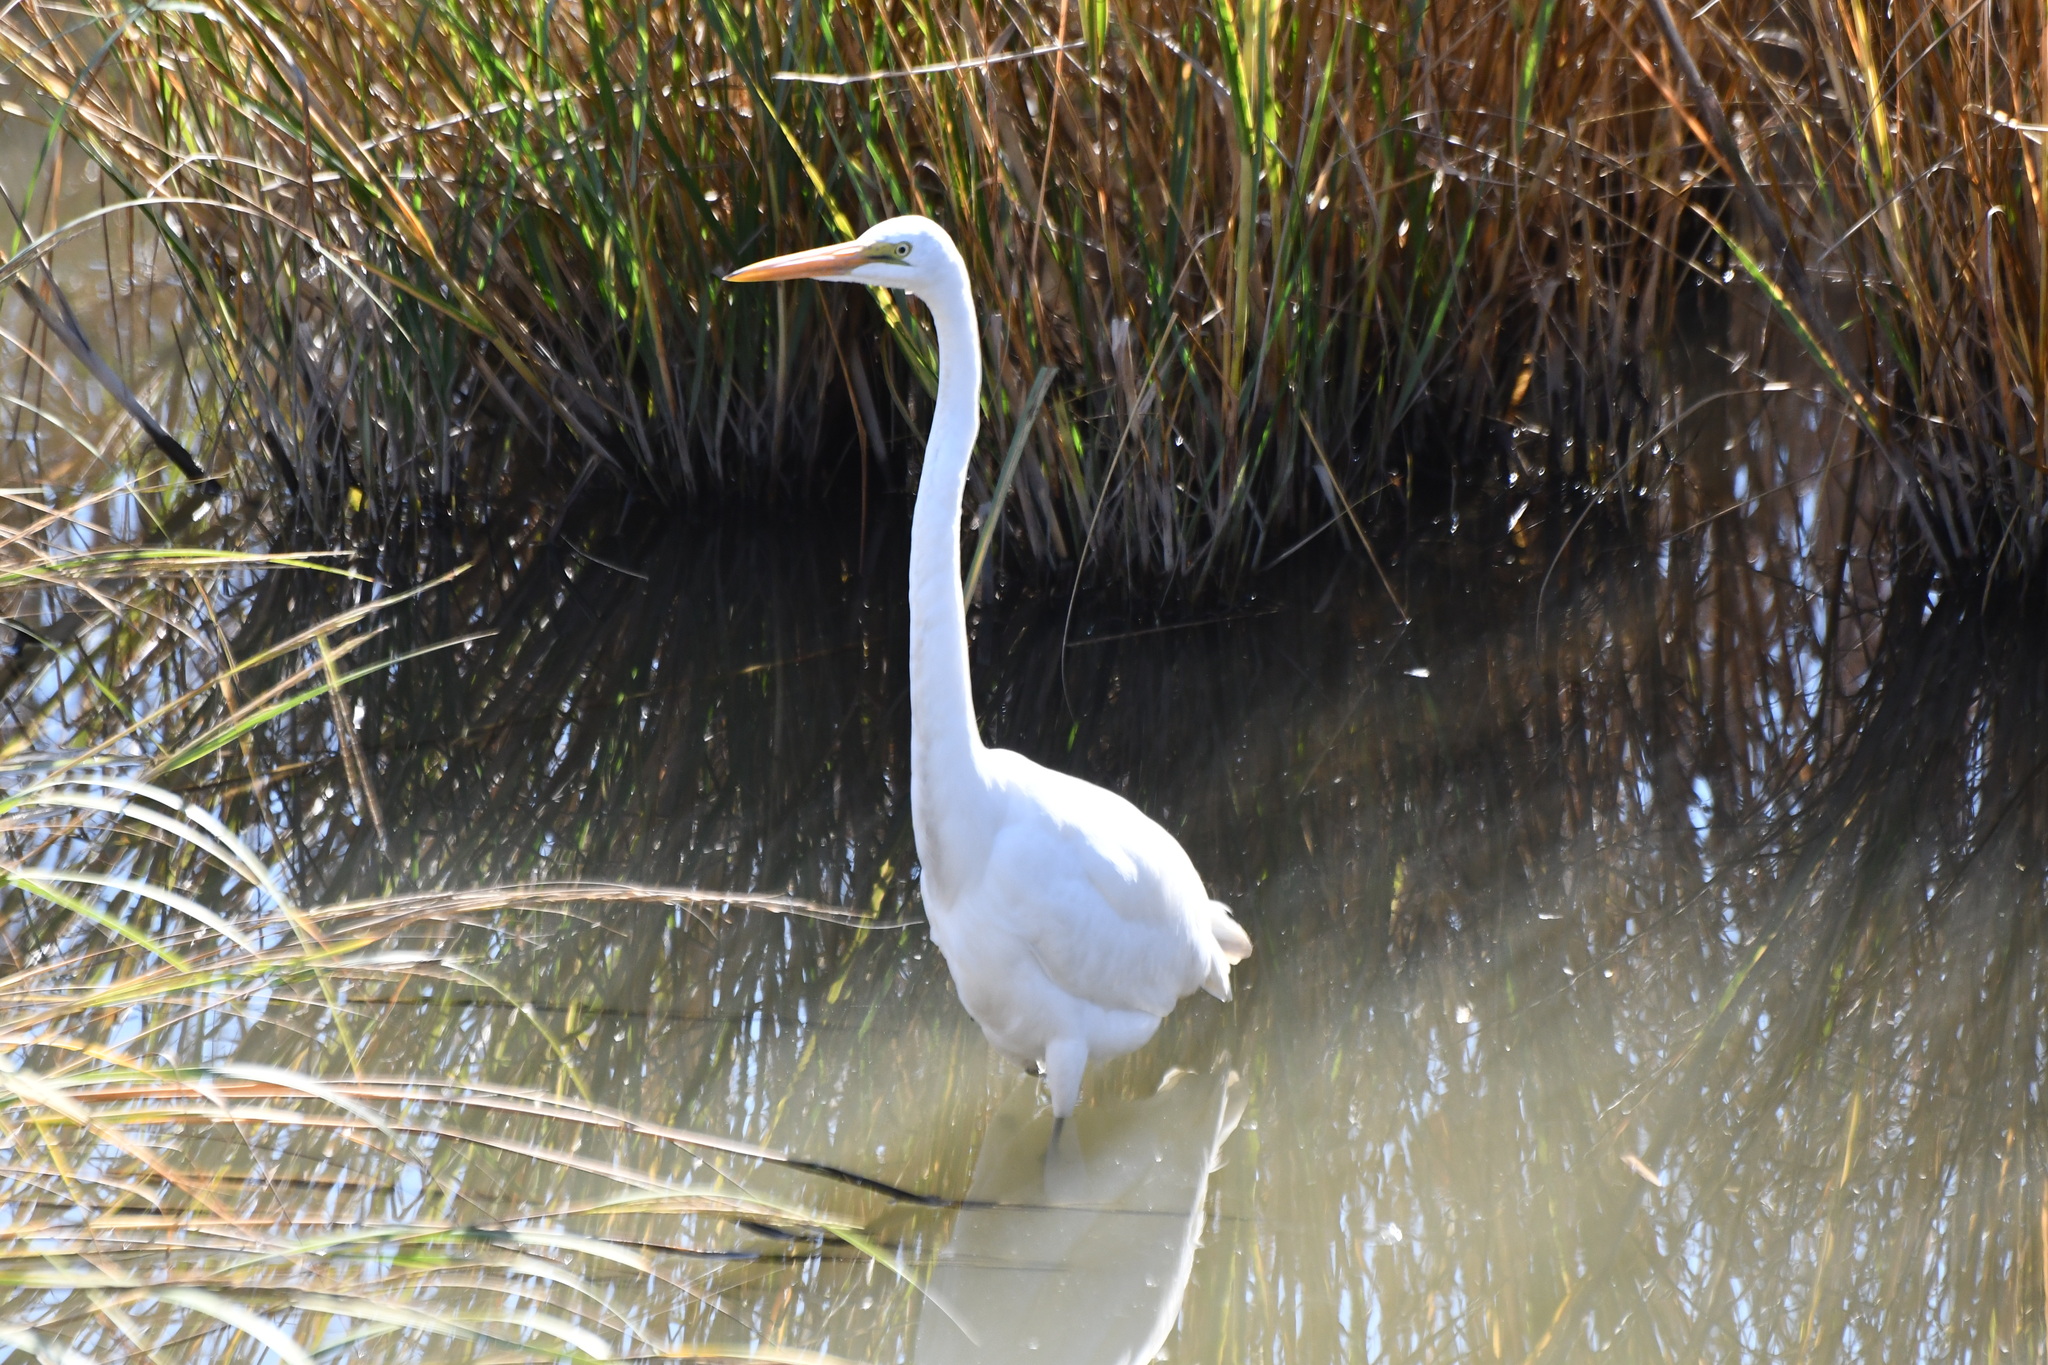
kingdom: Animalia
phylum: Chordata
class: Aves
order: Pelecaniformes
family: Ardeidae
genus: Ardea
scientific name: Ardea alba
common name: Great egret
